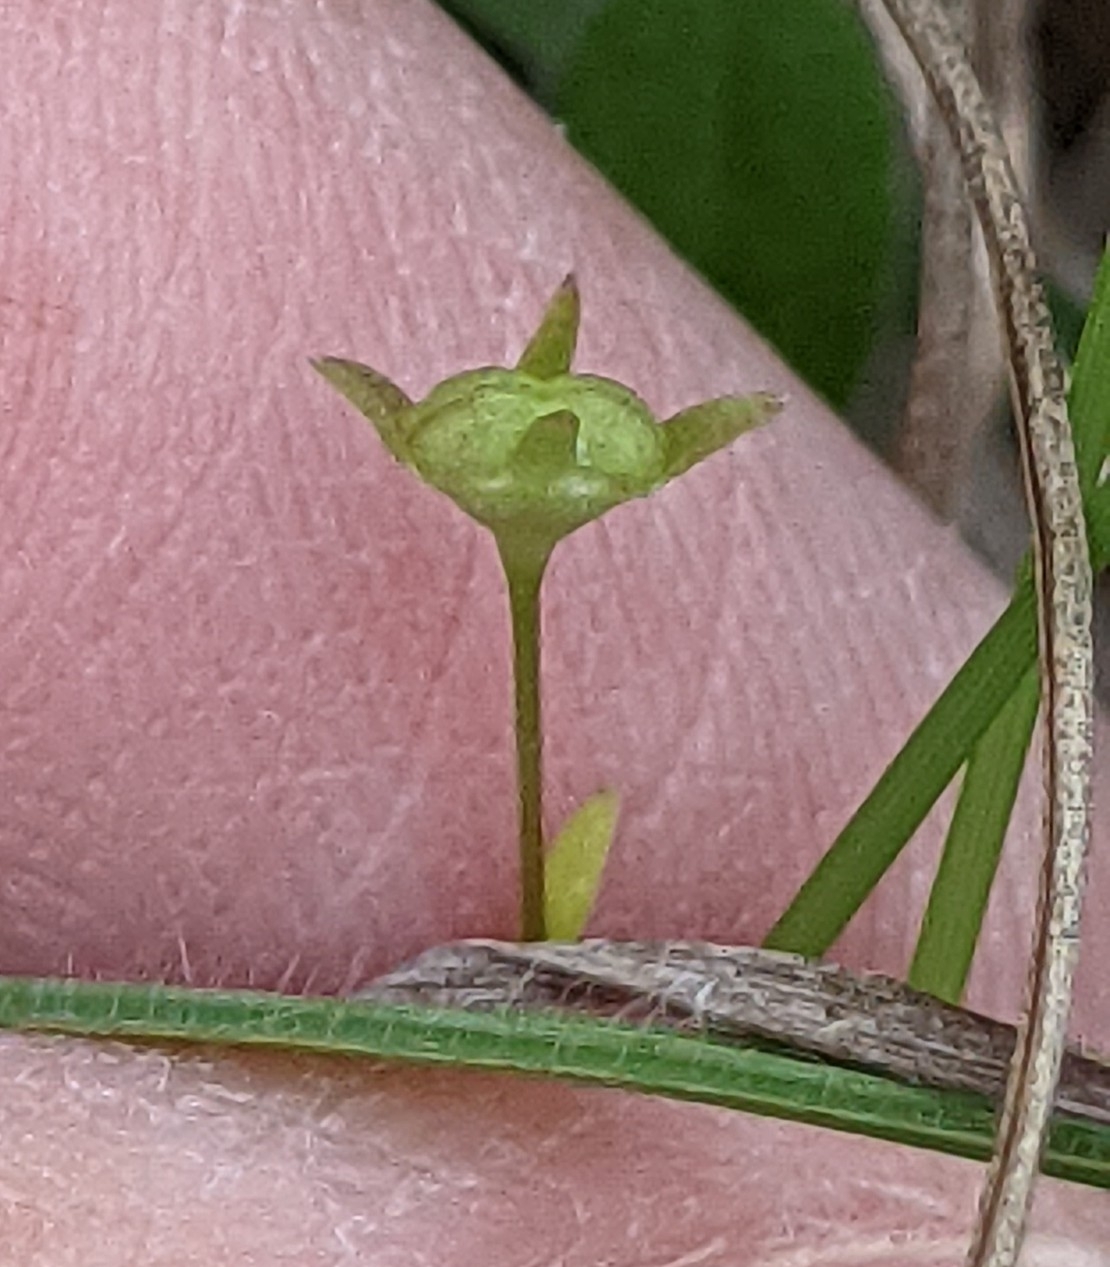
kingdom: Plantae
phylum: Tracheophyta
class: Magnoliopsida
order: Gentianales
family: Rubiaceae
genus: Houstonia
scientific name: Houstonia pusilla
